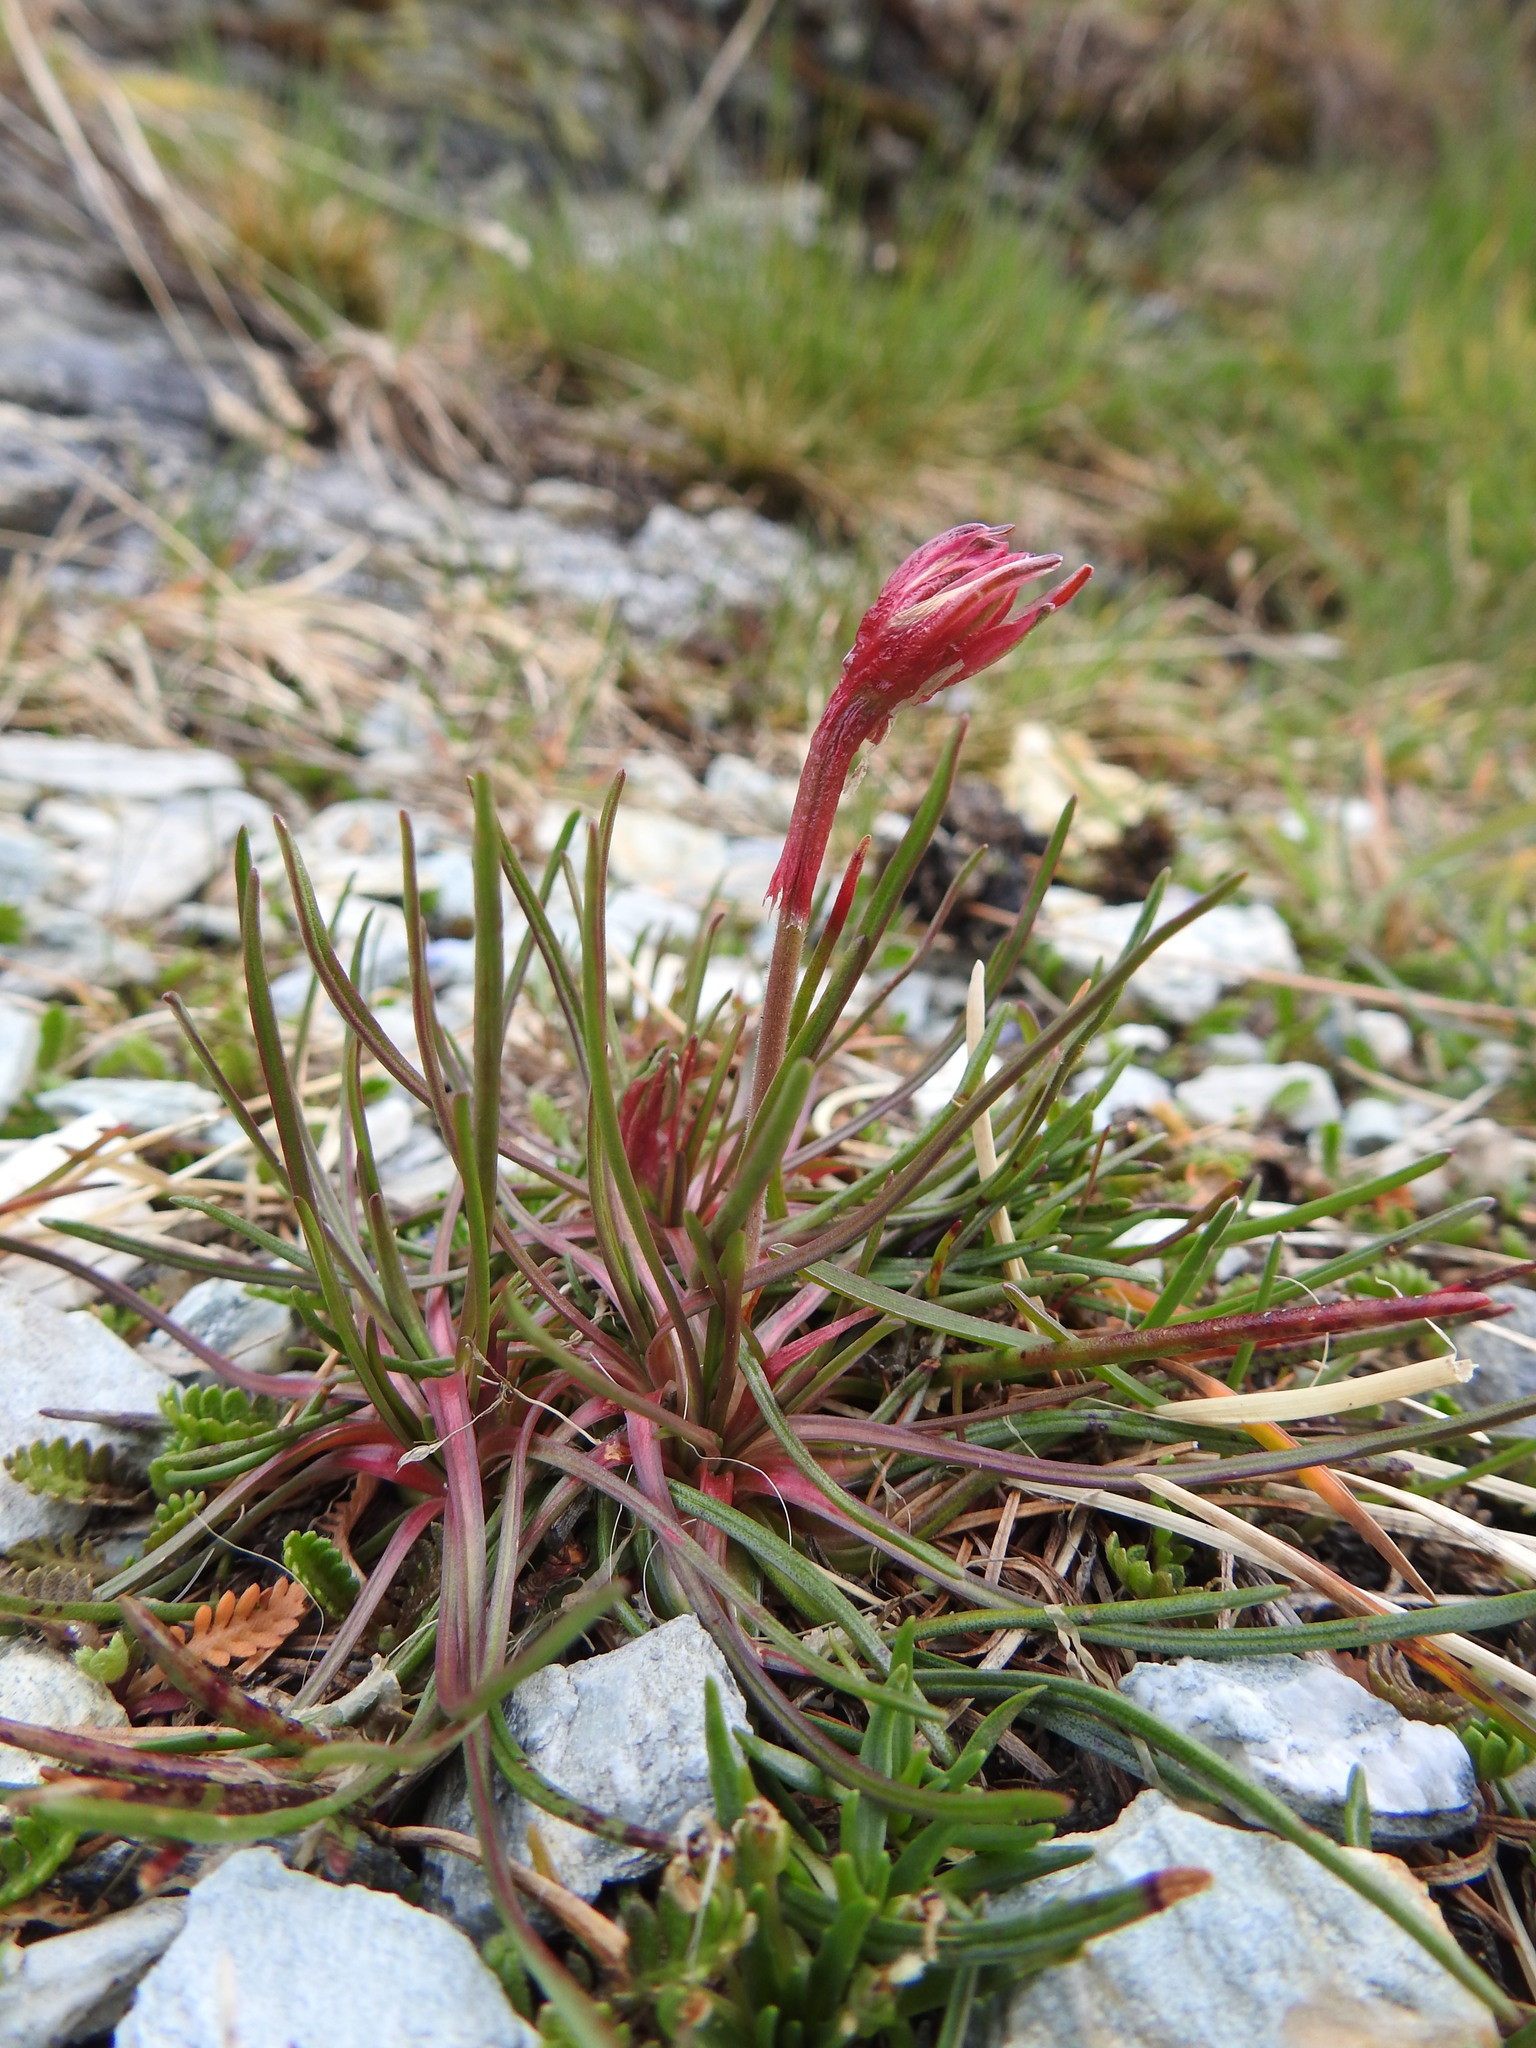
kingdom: Plantae
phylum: Tracheophyta
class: Magnoliopsida
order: Caryophyllales
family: Plumbaginaceae
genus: Armeria
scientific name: Armeria curvifolia
